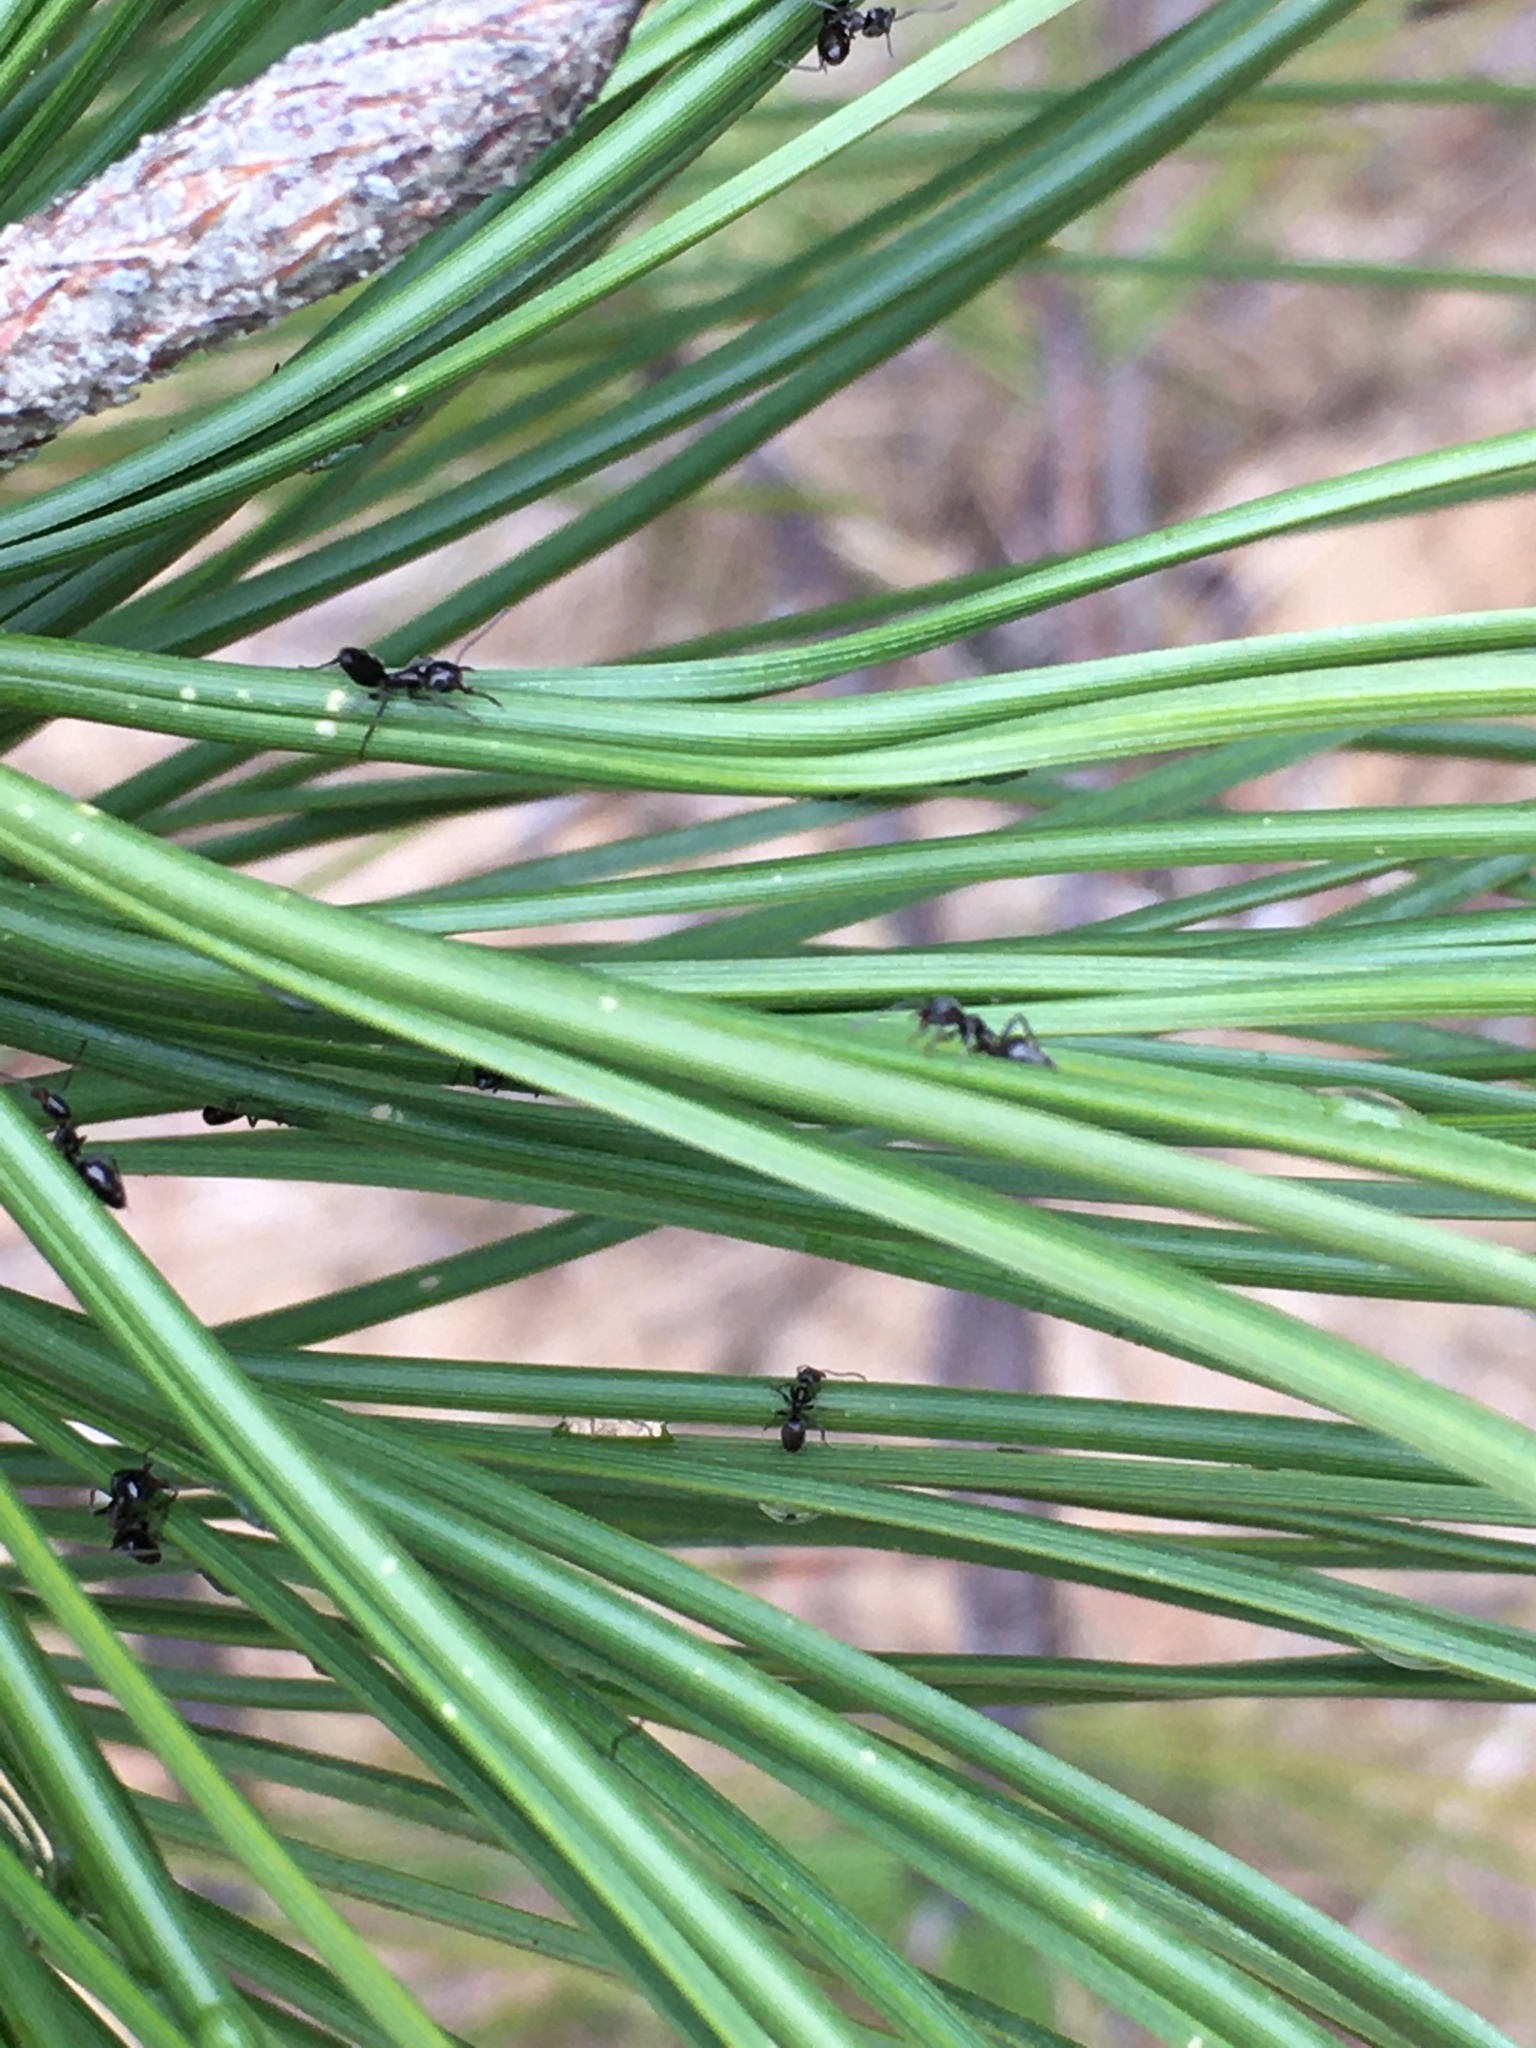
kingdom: Animalia
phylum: Arthropoda
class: Insecta
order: Hymenoptera
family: Formicidae
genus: Liometopum
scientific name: Liometopum luctuosum
